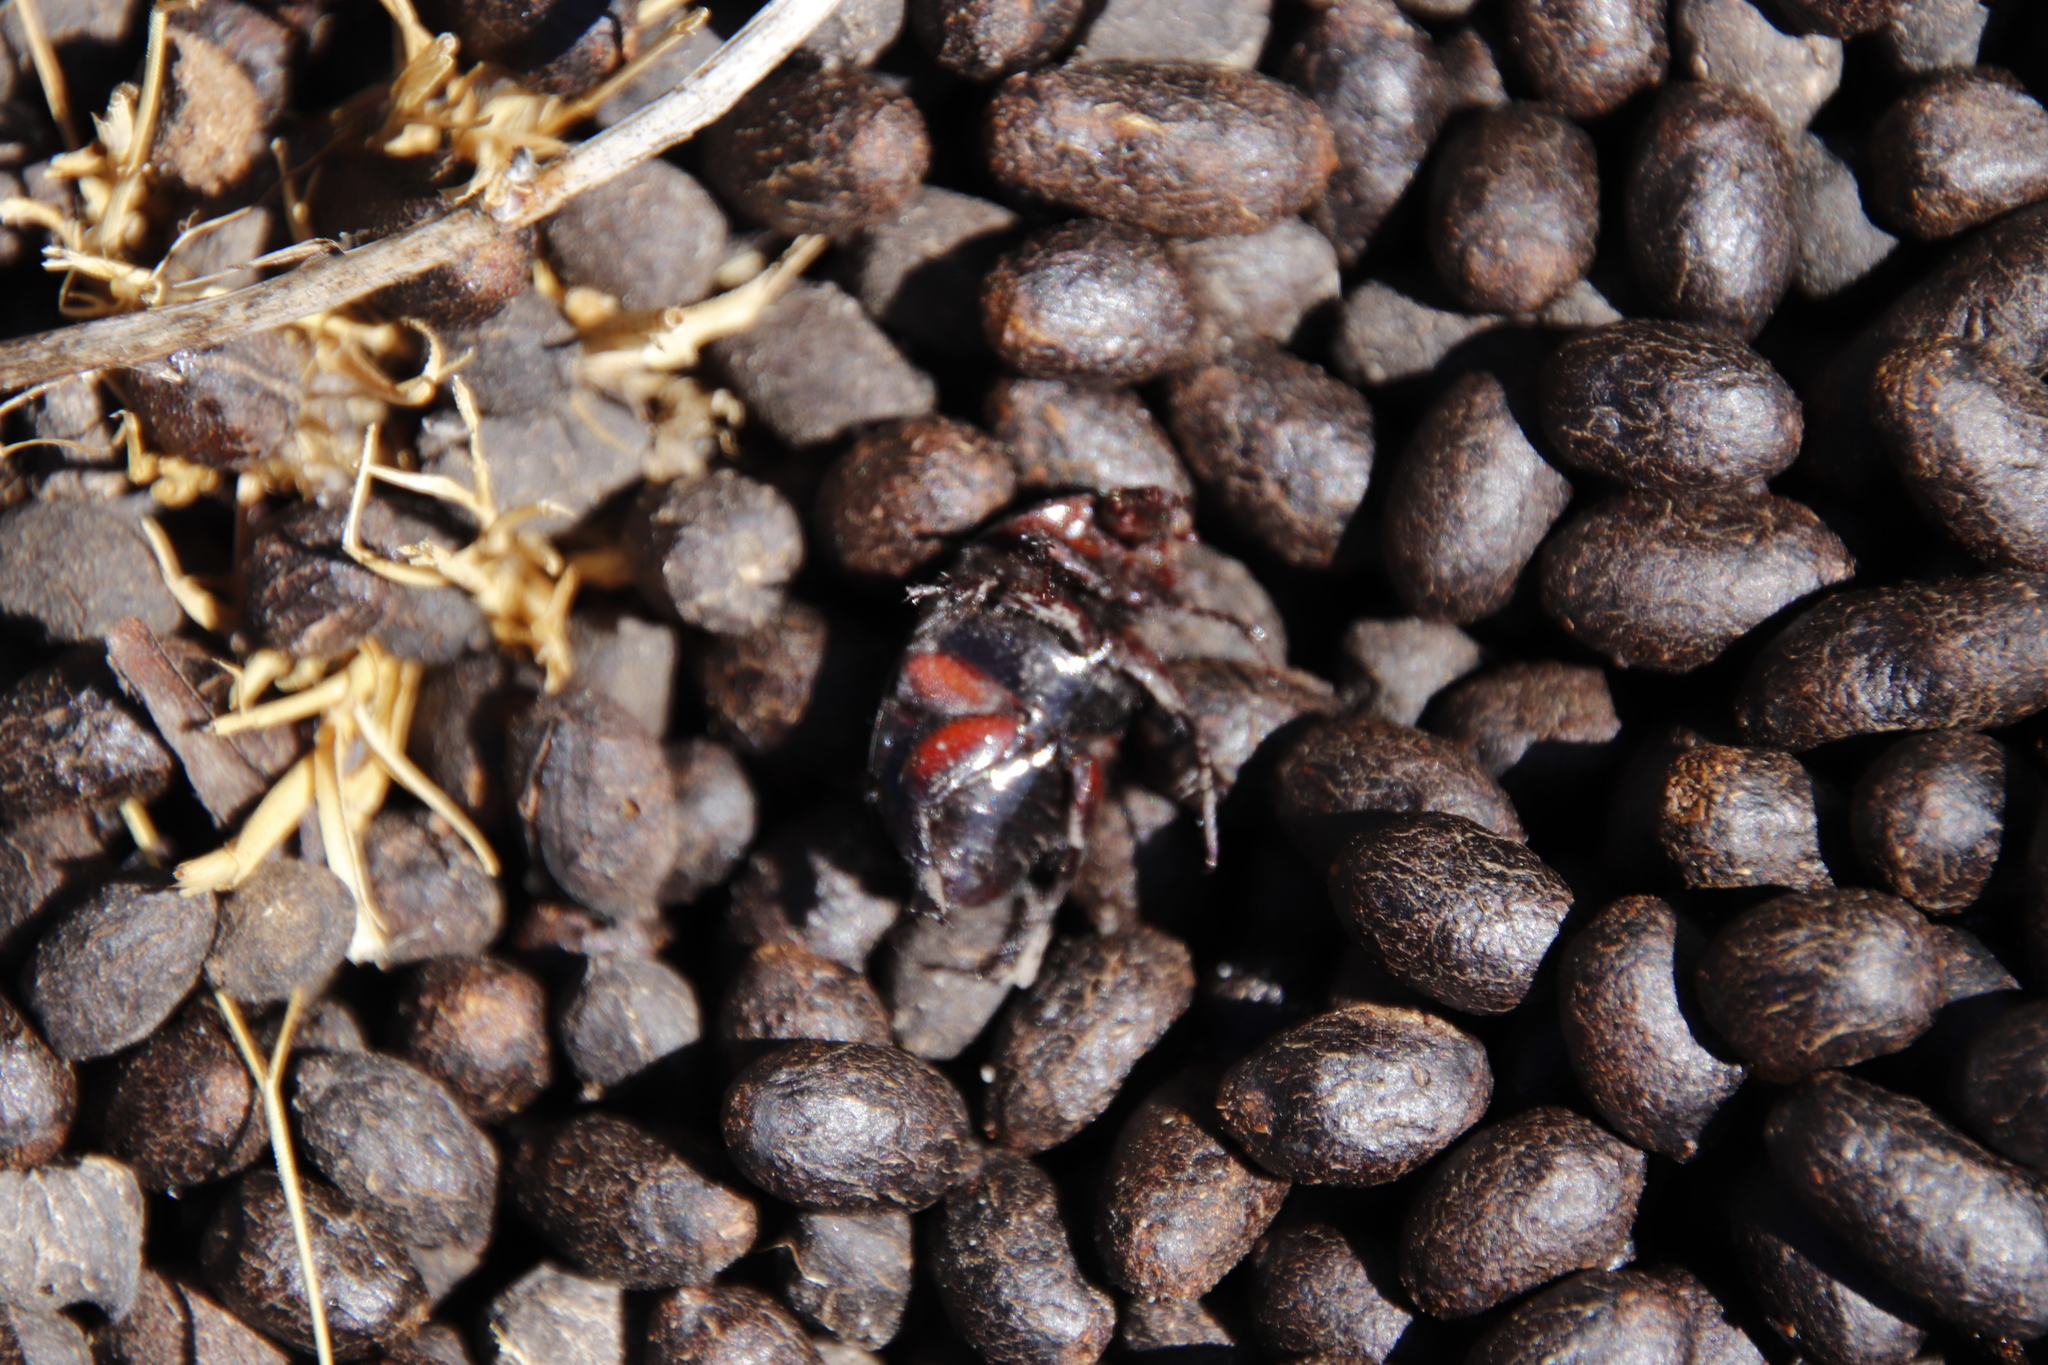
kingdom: Animalia
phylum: Chordata
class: Mammalia
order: Artiodactyla
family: Bovidae
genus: Oreotragus
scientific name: Oreotragus oreotragus
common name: Klipspringer
